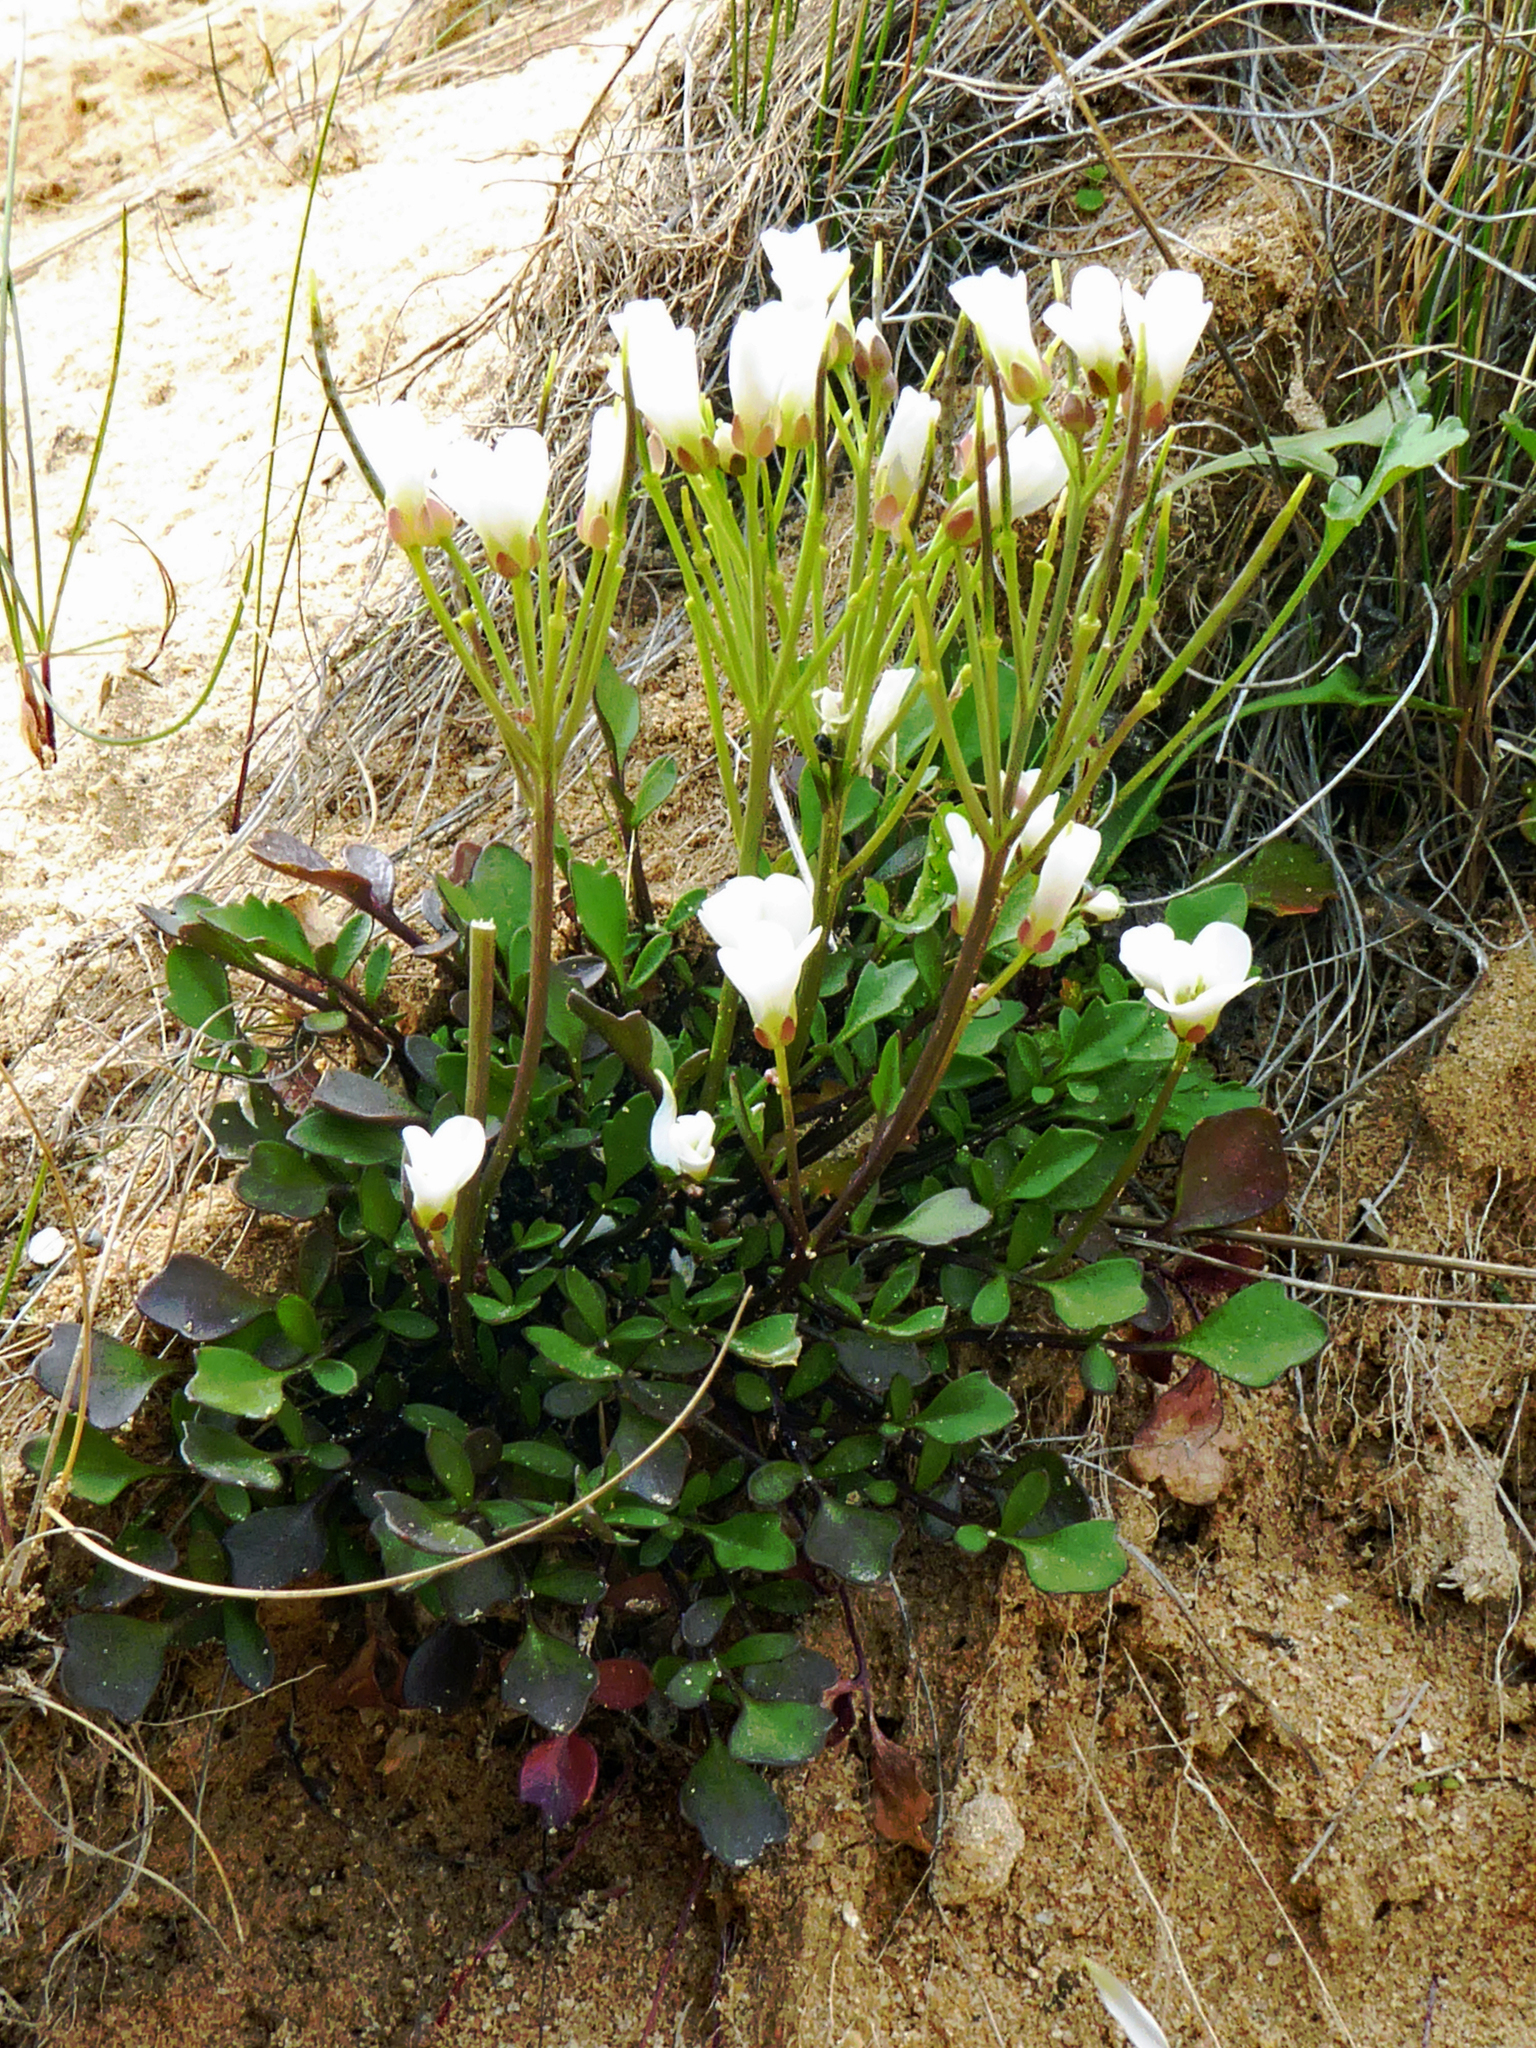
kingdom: Plantae
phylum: Tracheophyta
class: Magnoliopsida
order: Brassicales
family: Brassicaceae
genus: Cardamine
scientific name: Cardamine magnifica
